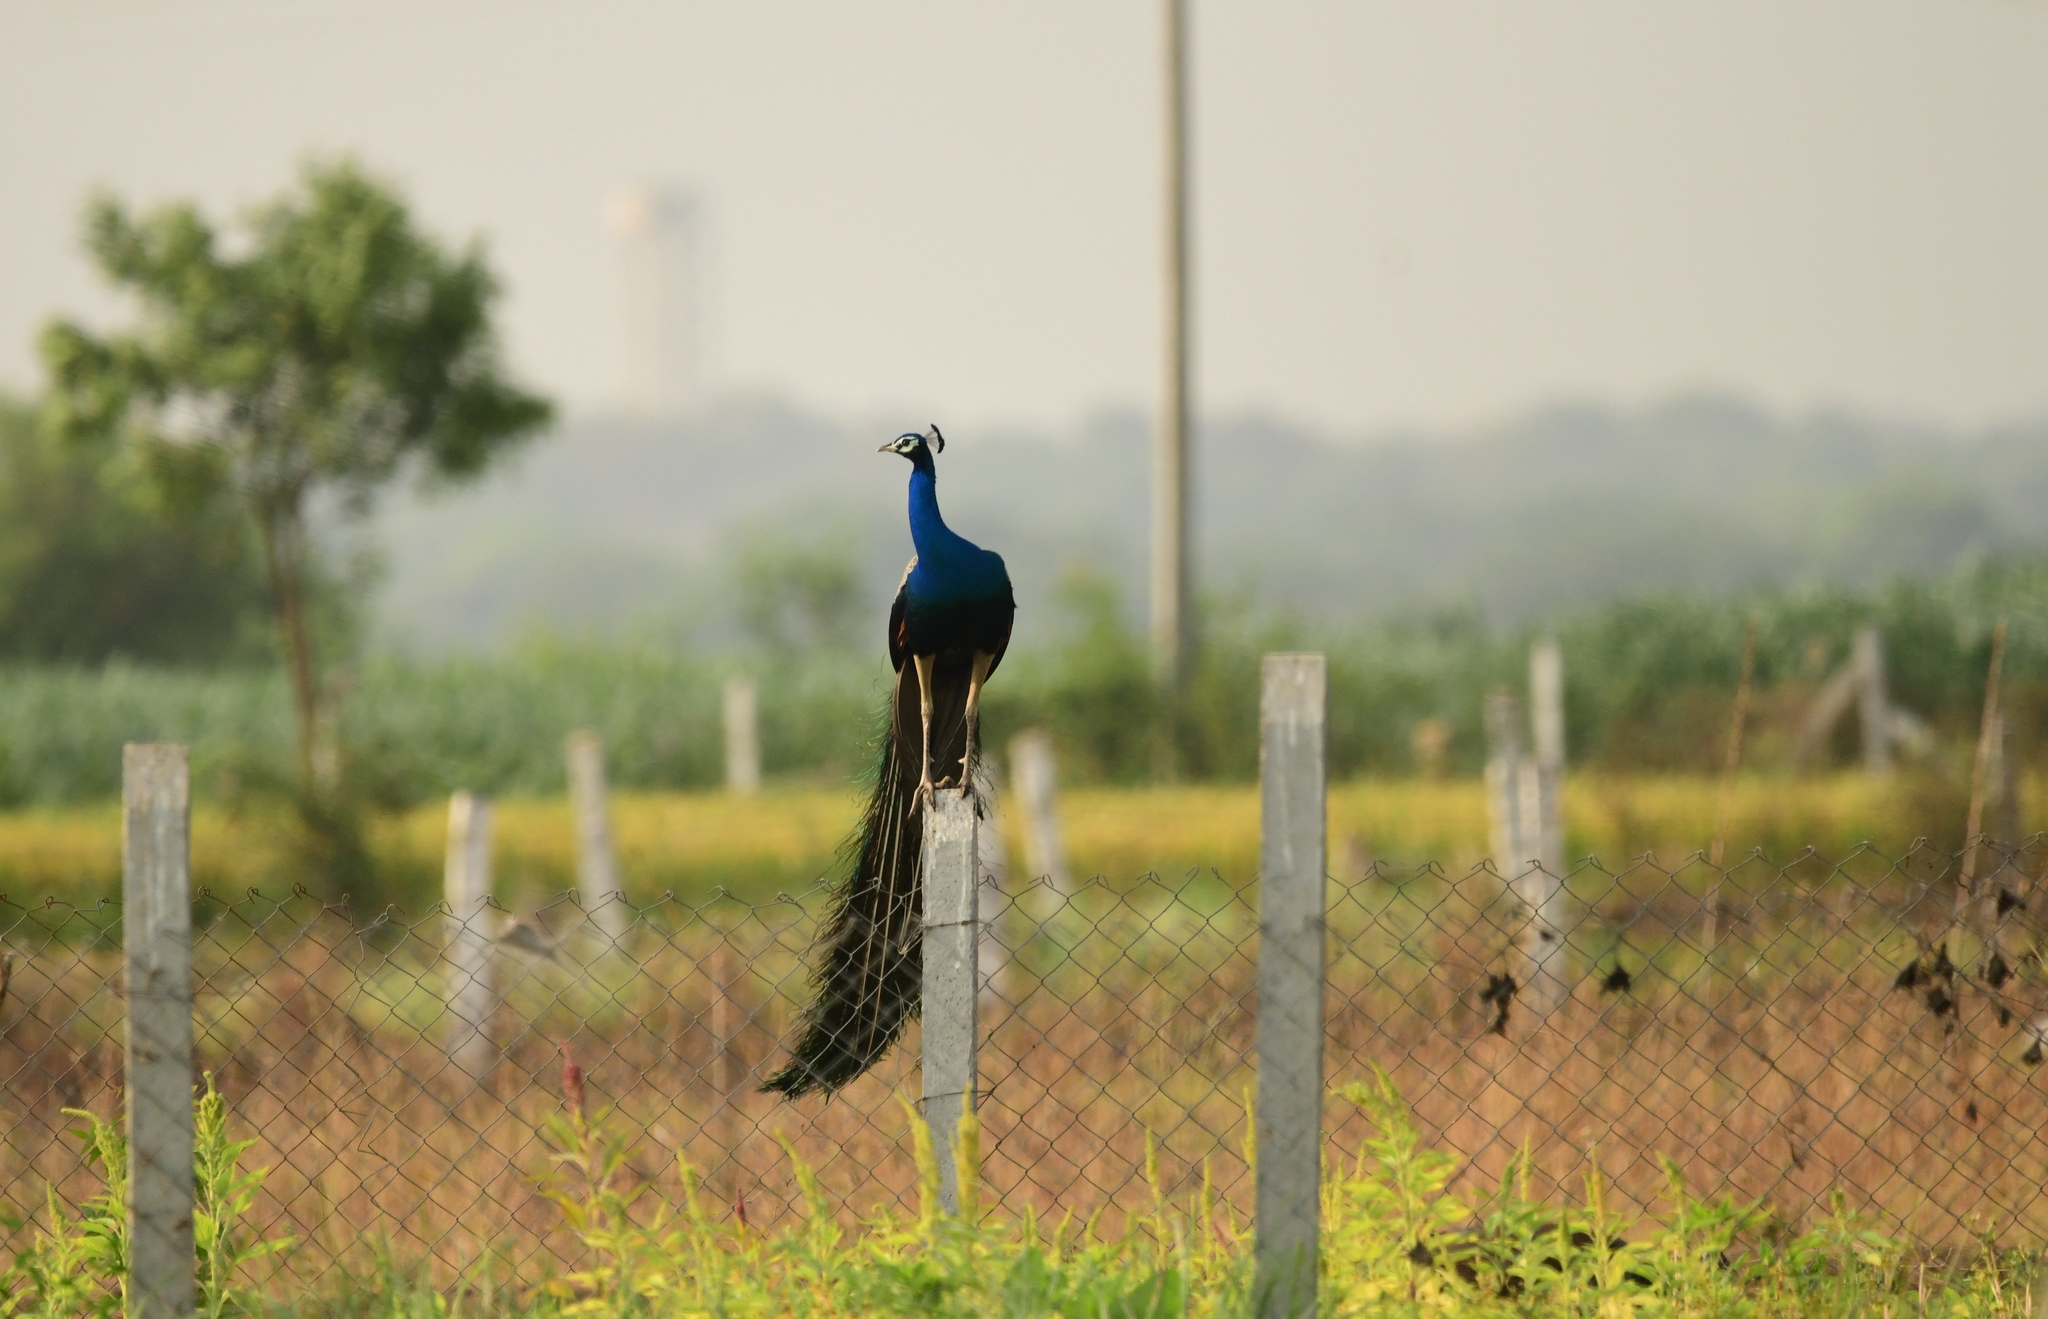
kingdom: Animalia
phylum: Chordata
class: Aves
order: Galliformes
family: Phasianidae
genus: Pavo
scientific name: Pavo cristatus
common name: Indian peafowl
